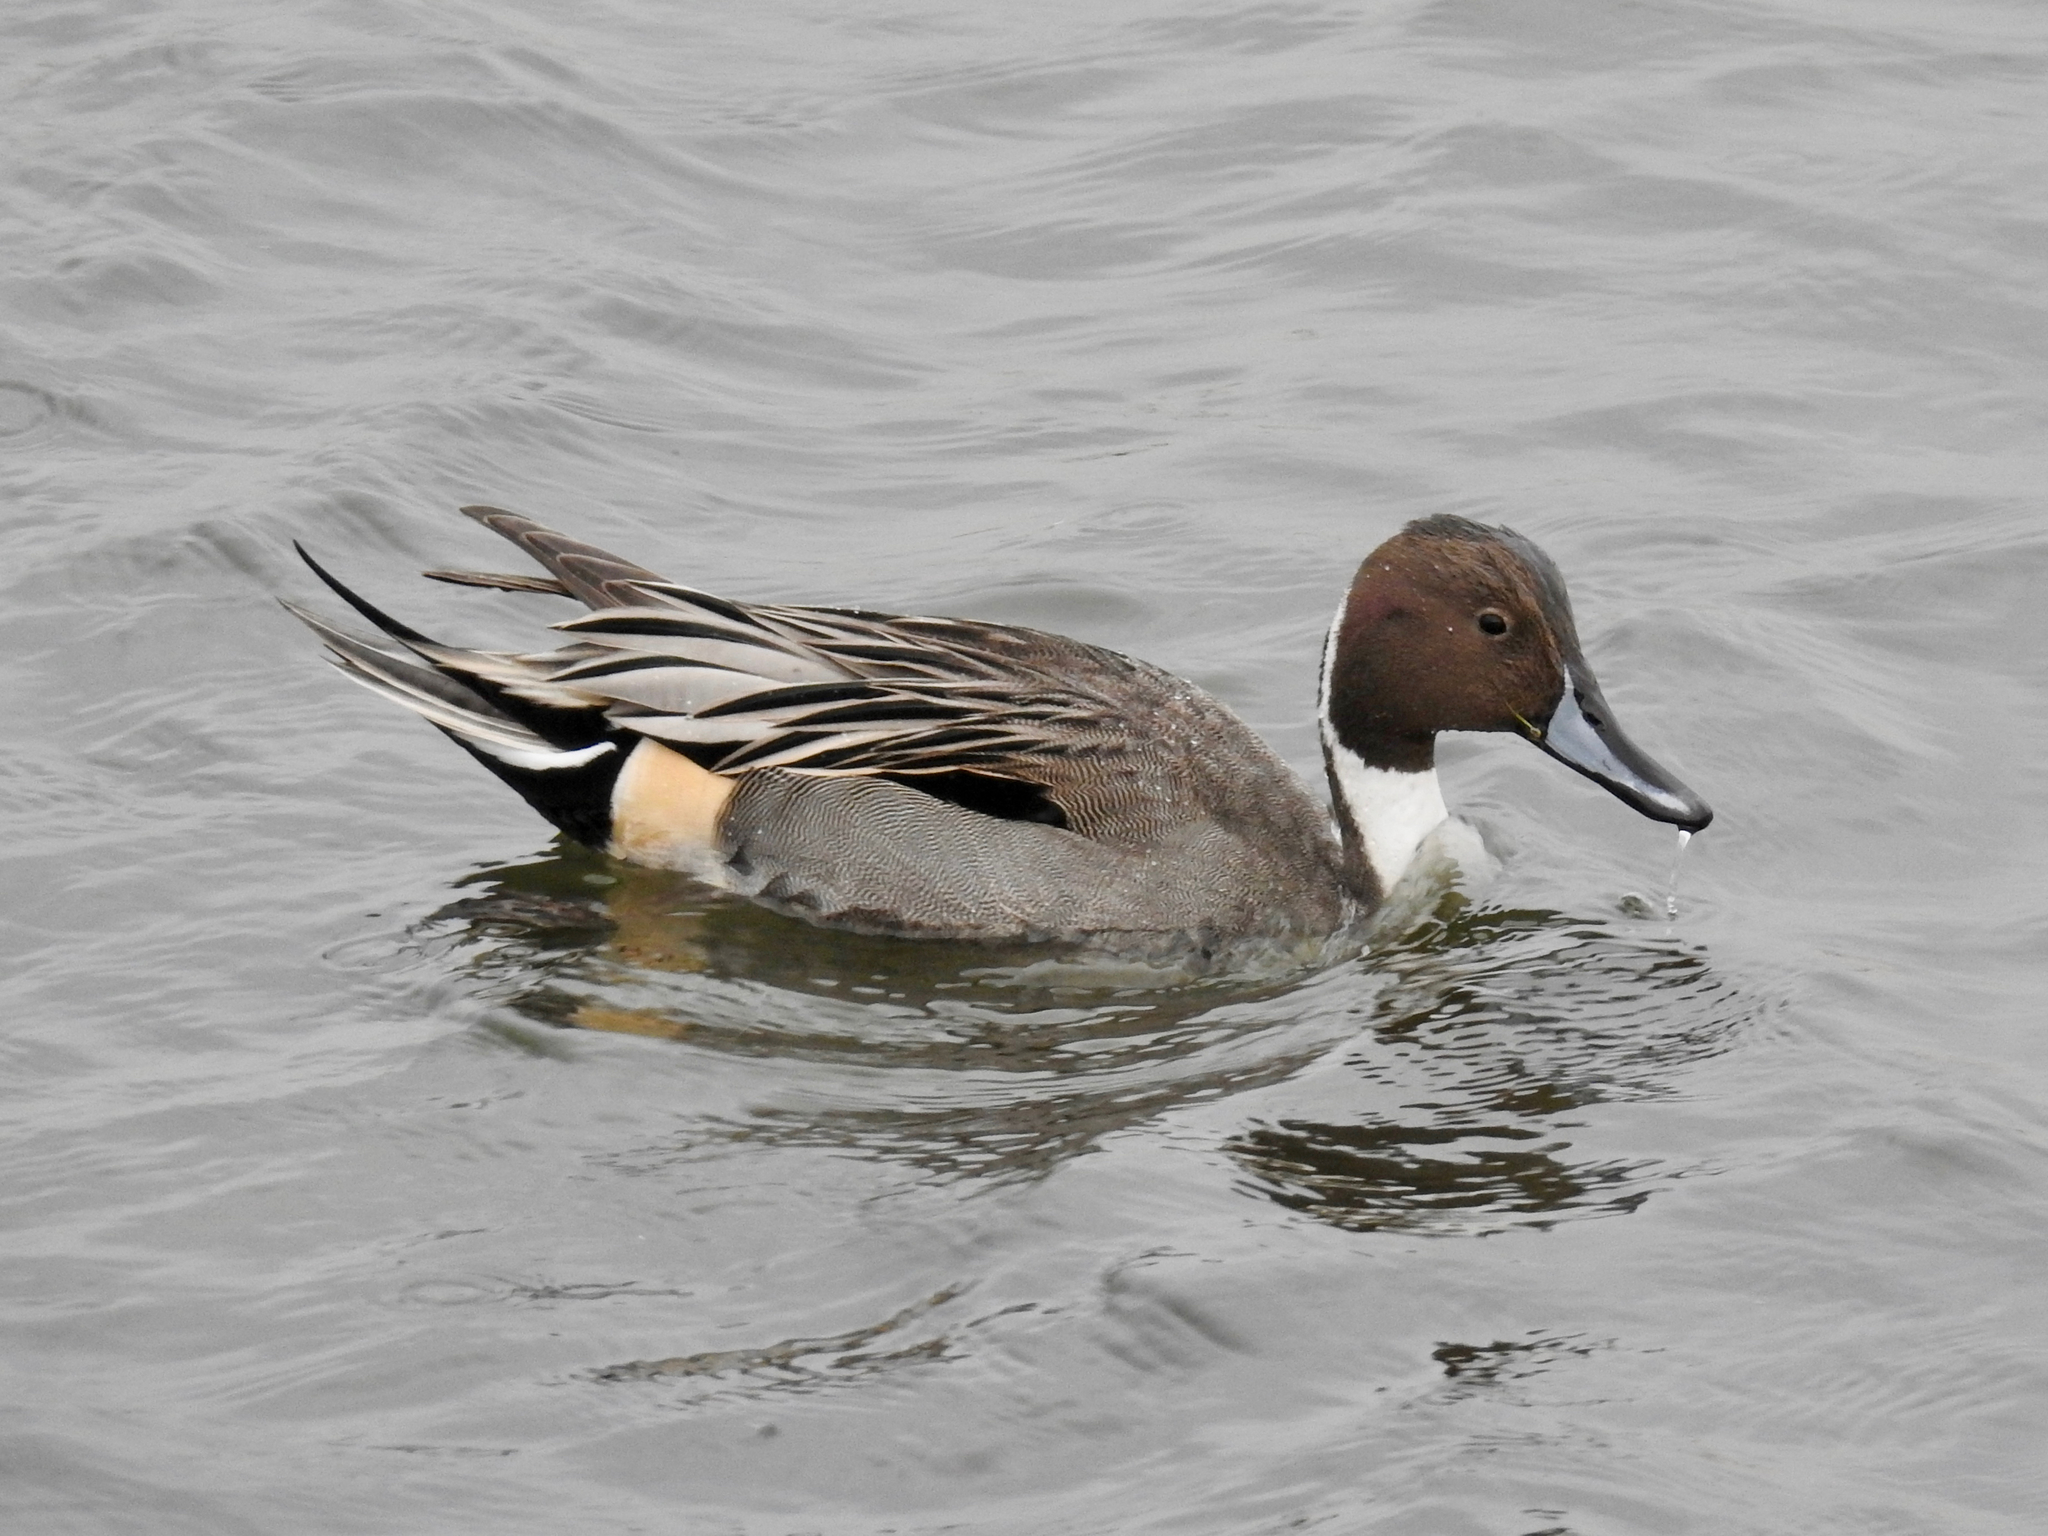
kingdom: Animalia
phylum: Chordata
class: Aves
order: Anseriformes
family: Anatidae
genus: Anas
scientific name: Anas acuta
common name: Northern pintail
